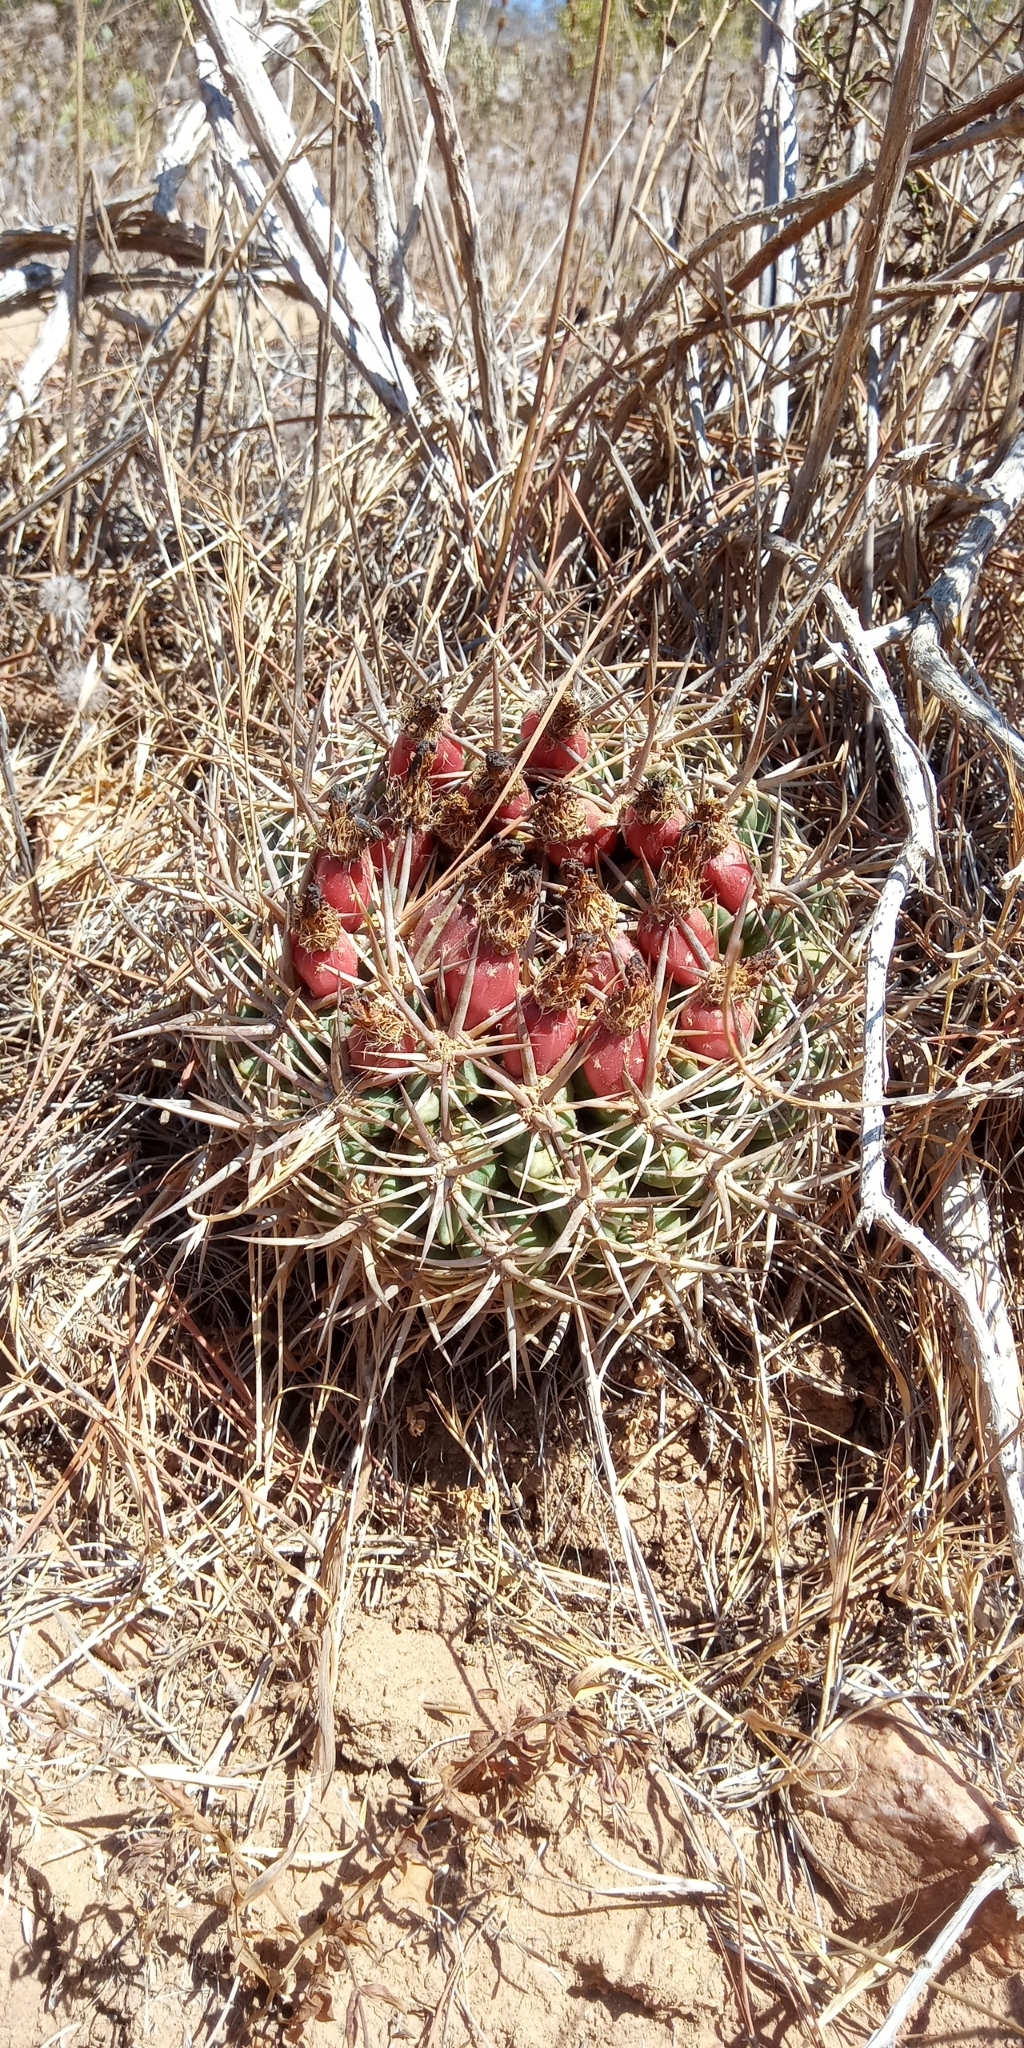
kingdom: Plantae
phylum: Tracheophyta
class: Magnoliopsida
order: Caryophyllales
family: Cactaceae
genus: Eriosyce
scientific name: Eriosyce
